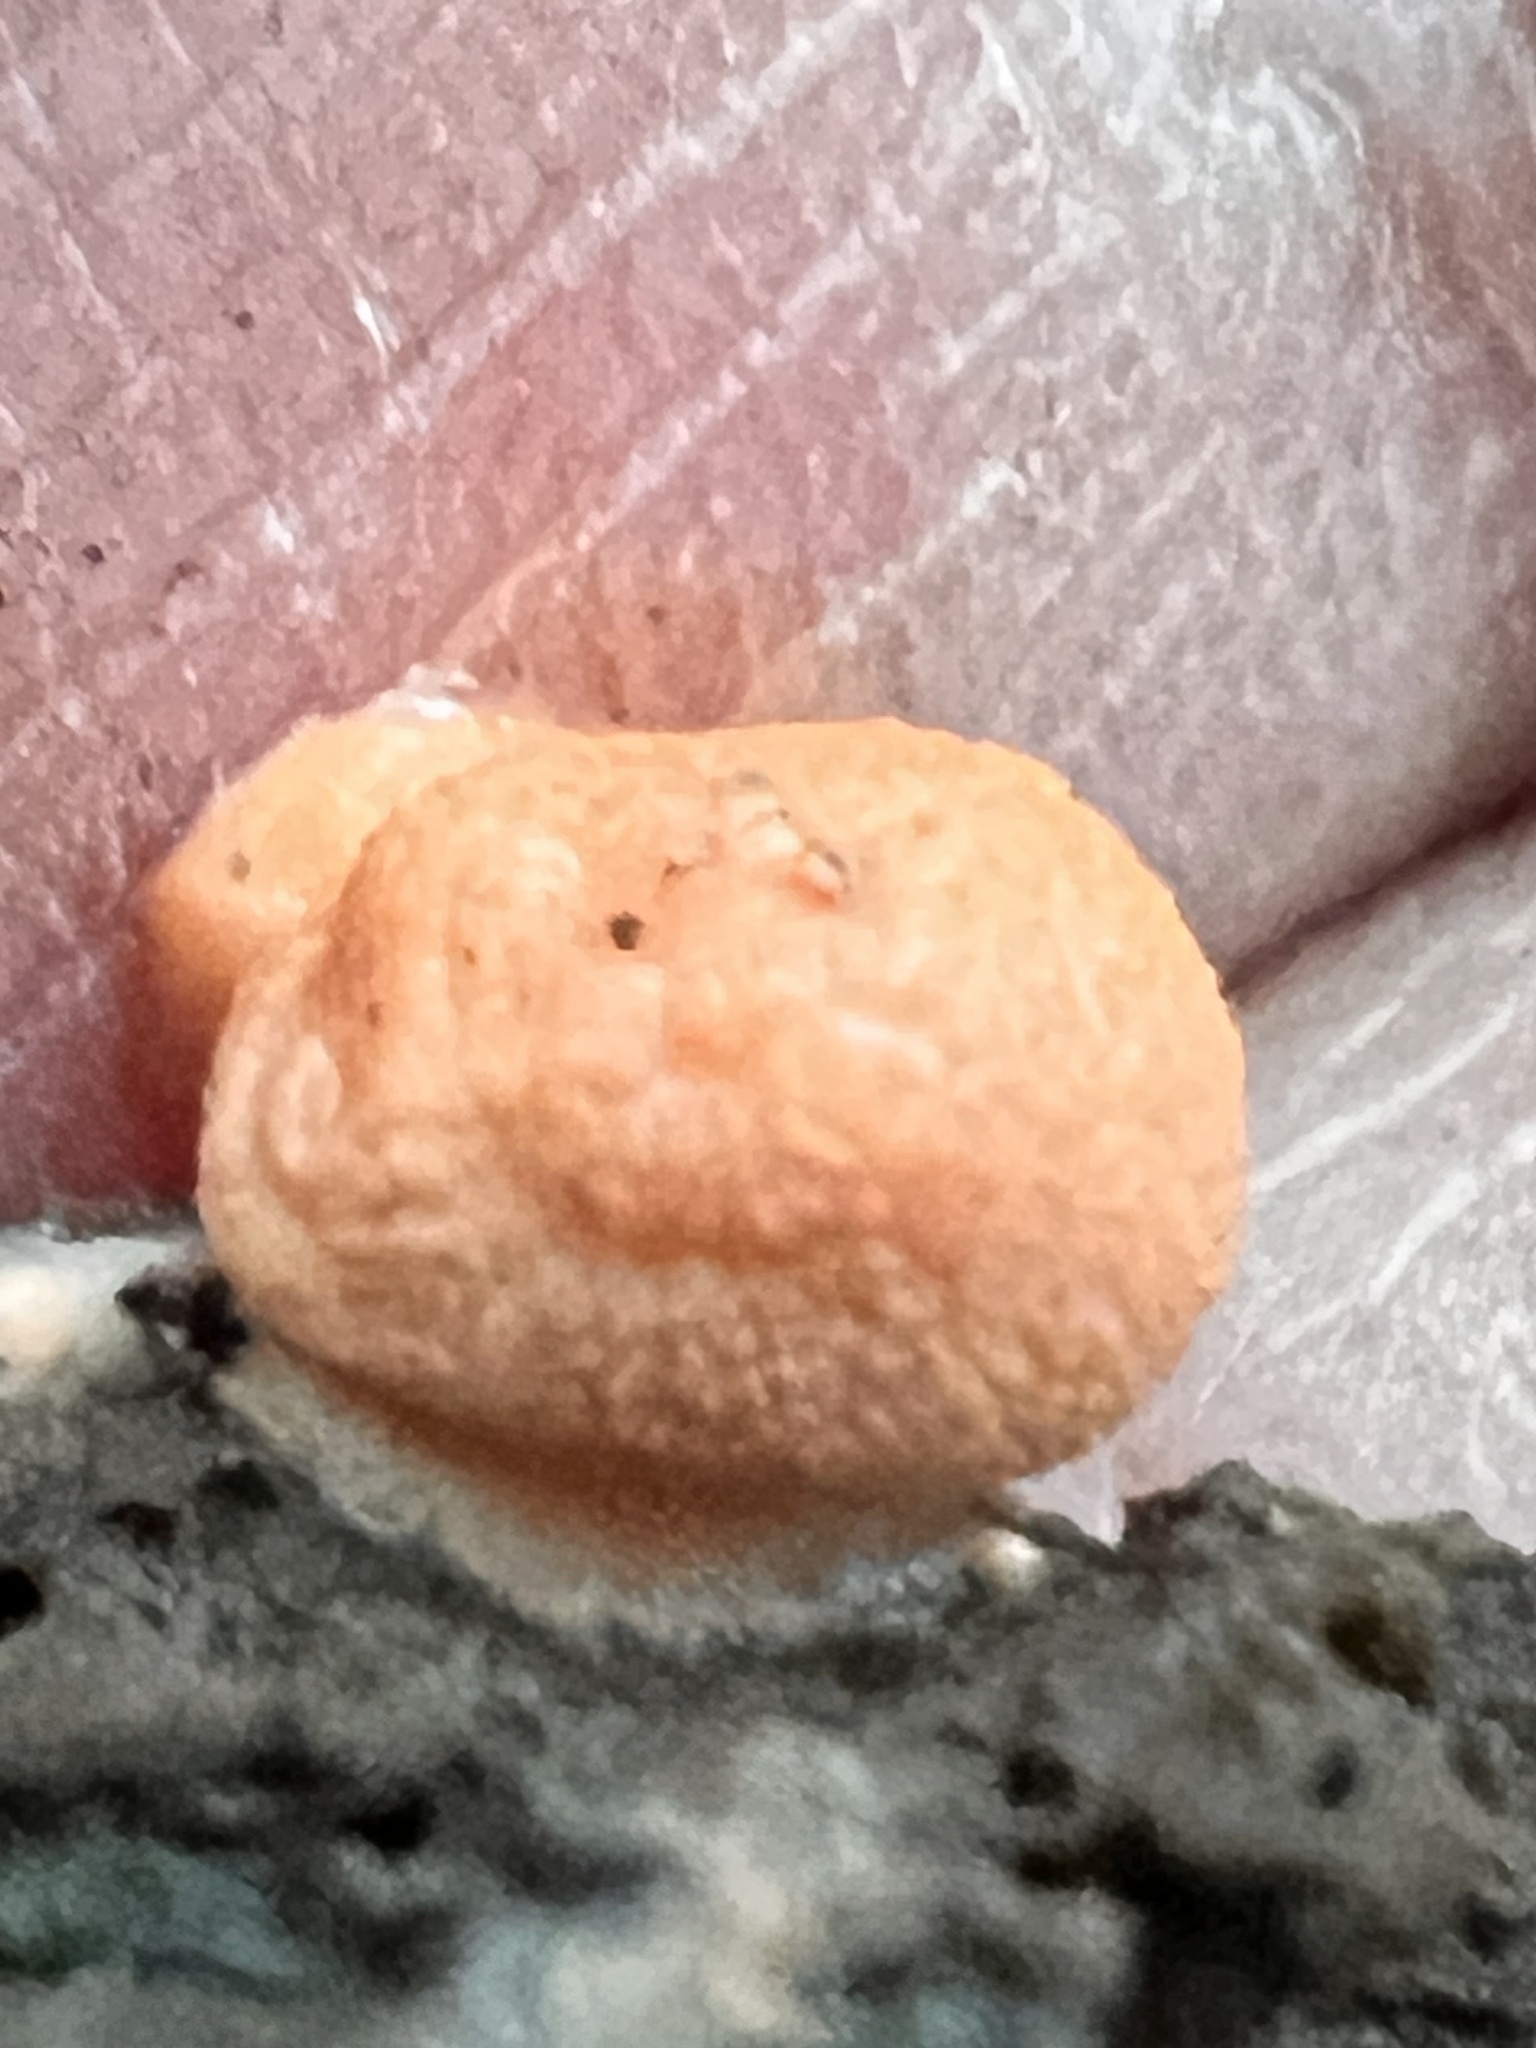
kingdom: Protozoa
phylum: Mycetozoa
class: Myxomycetes
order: Cribrariales
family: Tubiferaceae
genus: Lycogala
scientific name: Lycogala epidendrum
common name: Wolf's milk
